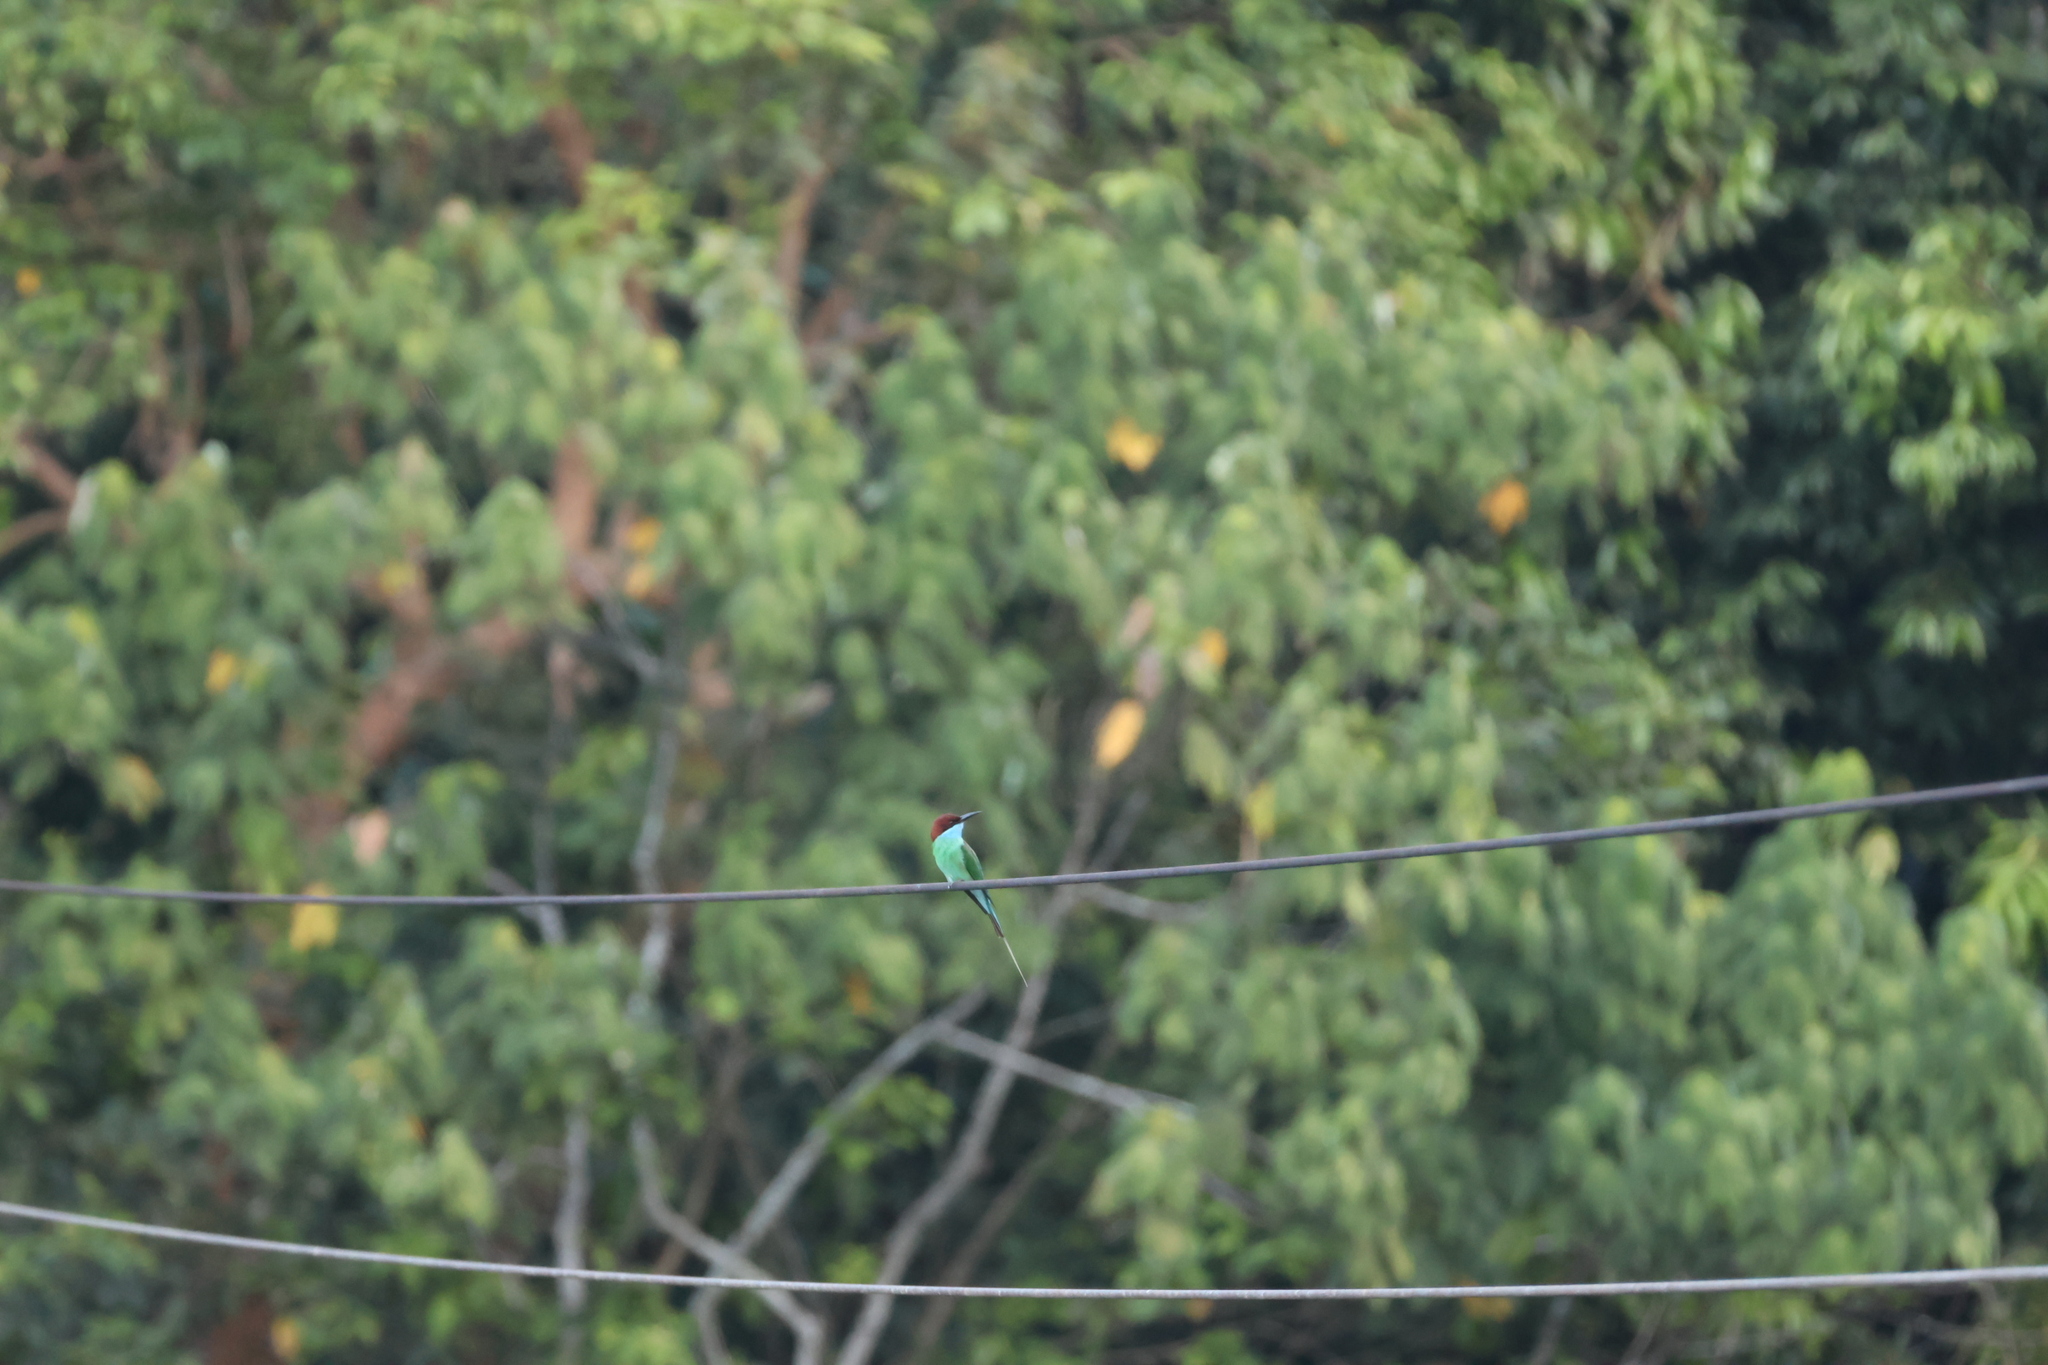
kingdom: Animalia
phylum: Chordata
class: Aves
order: Coraciiformes
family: Meropidae
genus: Merops
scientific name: Merops viridis
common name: Blue-throated bee-eater
